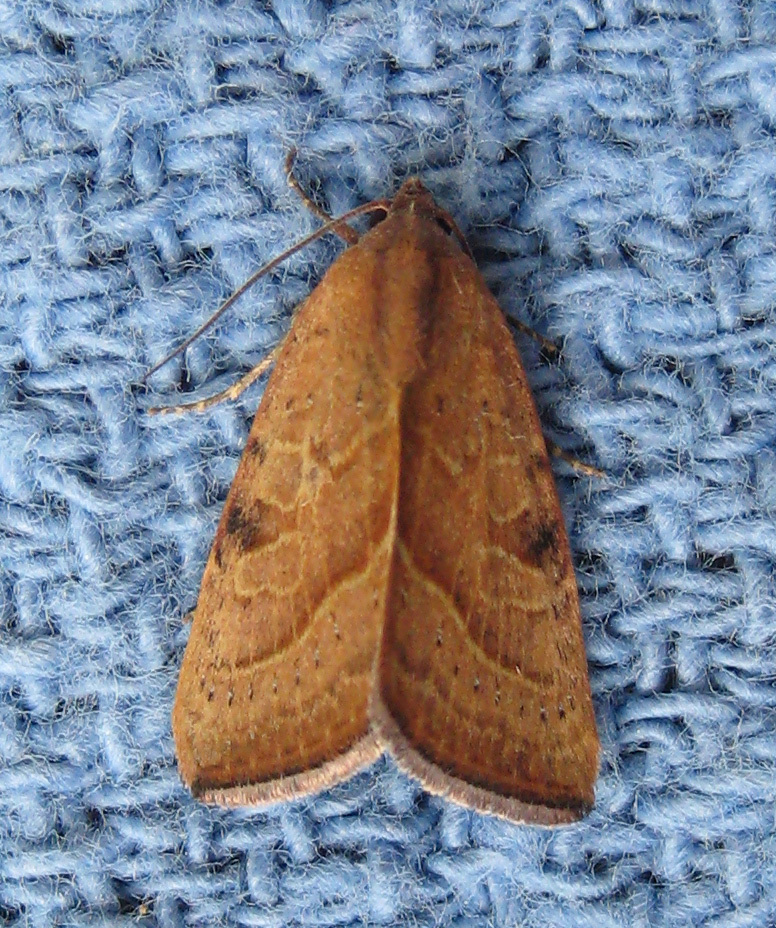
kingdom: Animalia
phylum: Arthropoda
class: Insecta
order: Lepidoptera
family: Noctuidae
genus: Galgula
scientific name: Galgula partita
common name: Wedgeling
